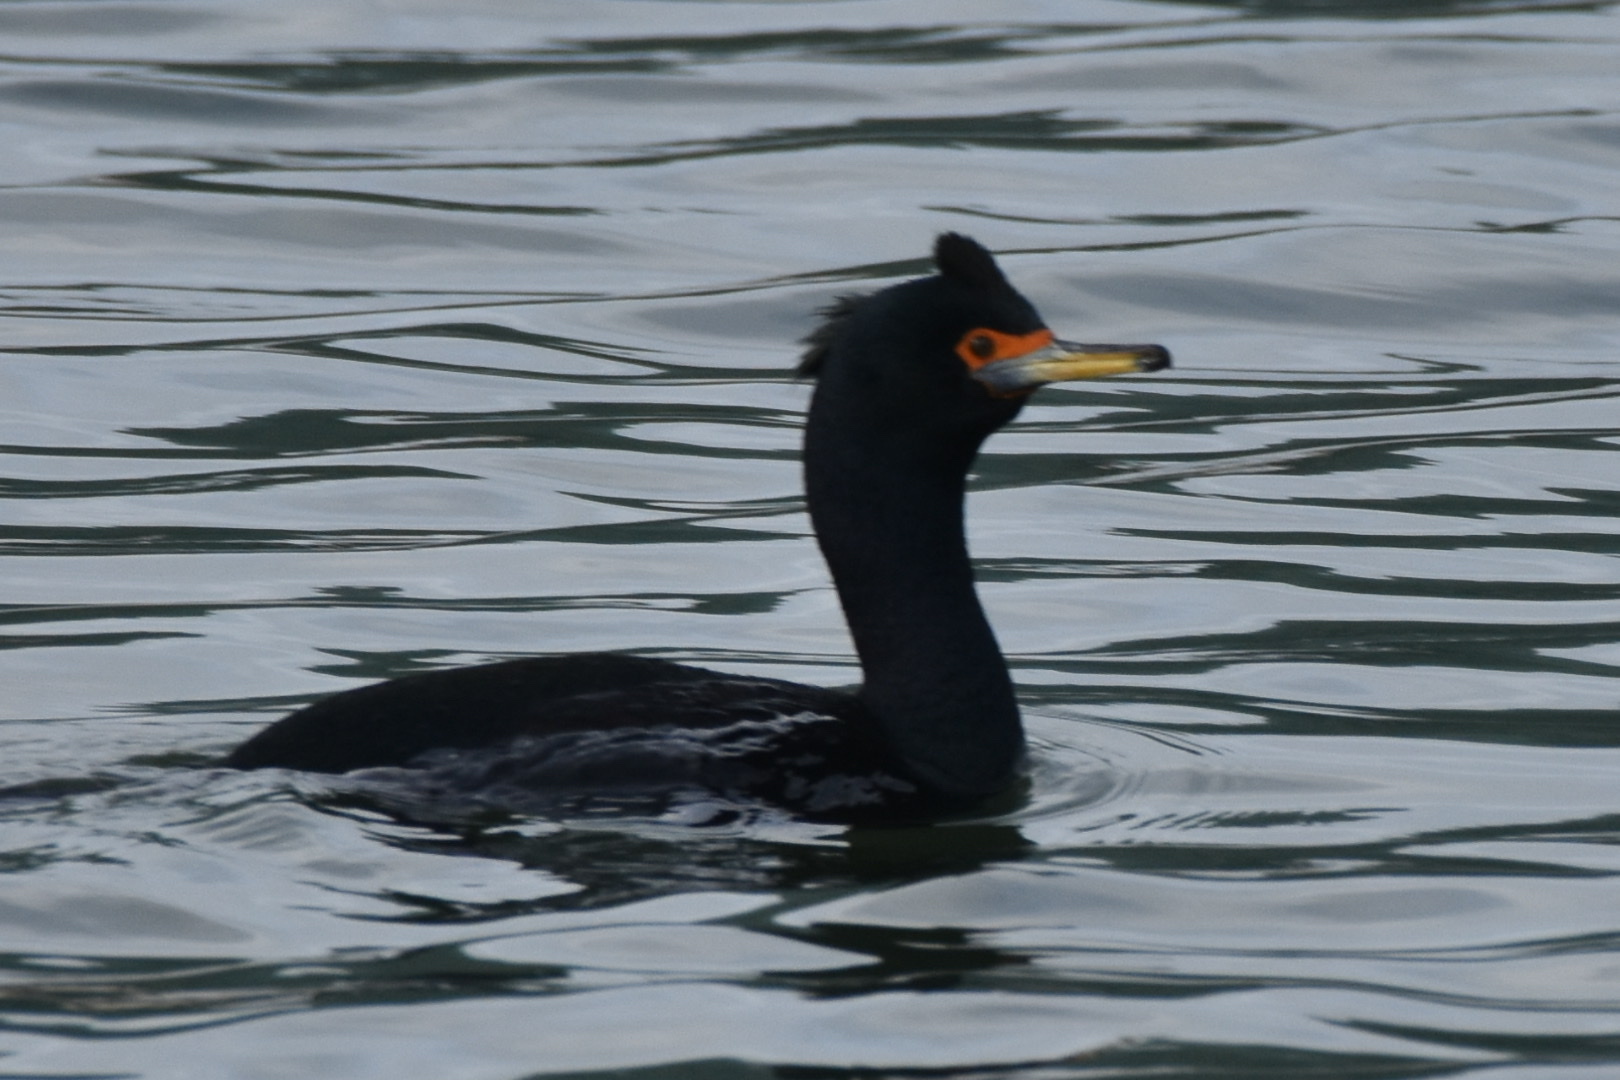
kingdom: Animalia
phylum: Chordata
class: Aves
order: Suliformes
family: Phalacrocoracidae
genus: Phalacrocorax
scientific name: Phalacrocorax urile
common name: Red-faced cormorant
